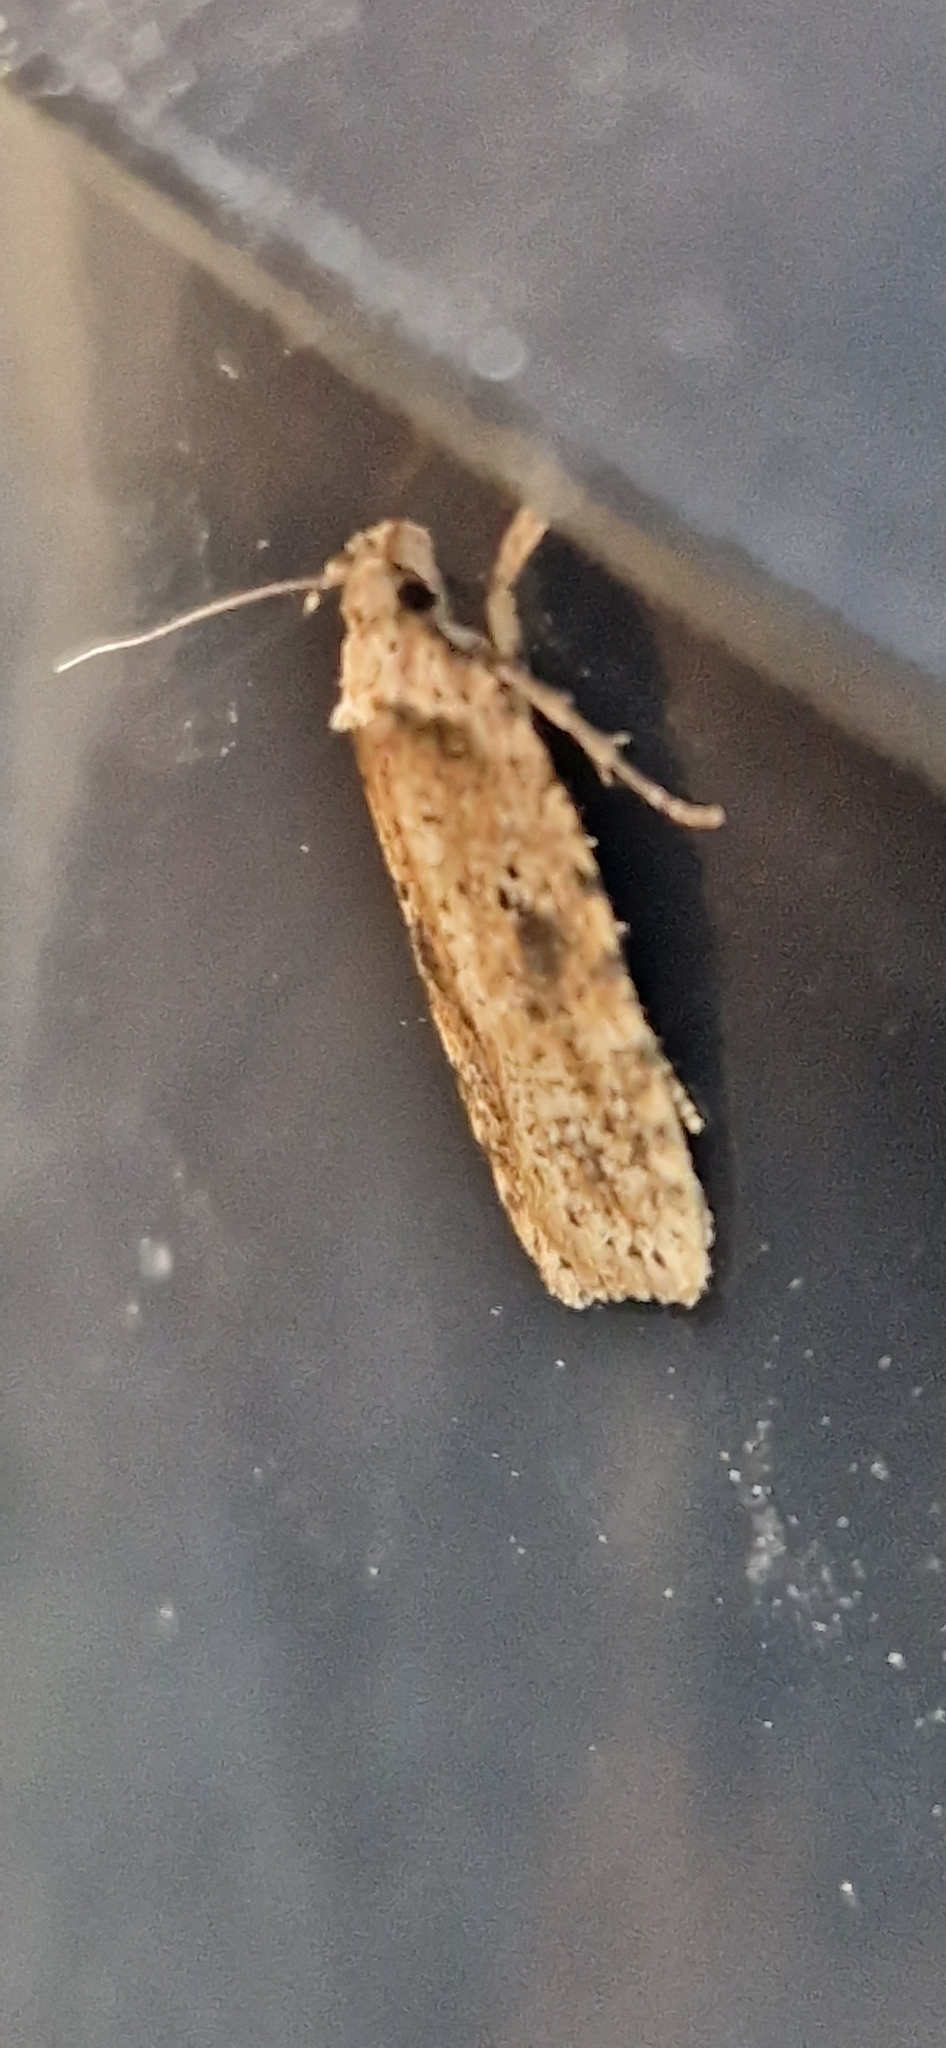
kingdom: Animalia
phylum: Arthropoda
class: Insecta
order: Lepidoptera
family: Depressariidae
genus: Agonopterix
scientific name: Agonopterix arenella
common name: Brindled flat-body
